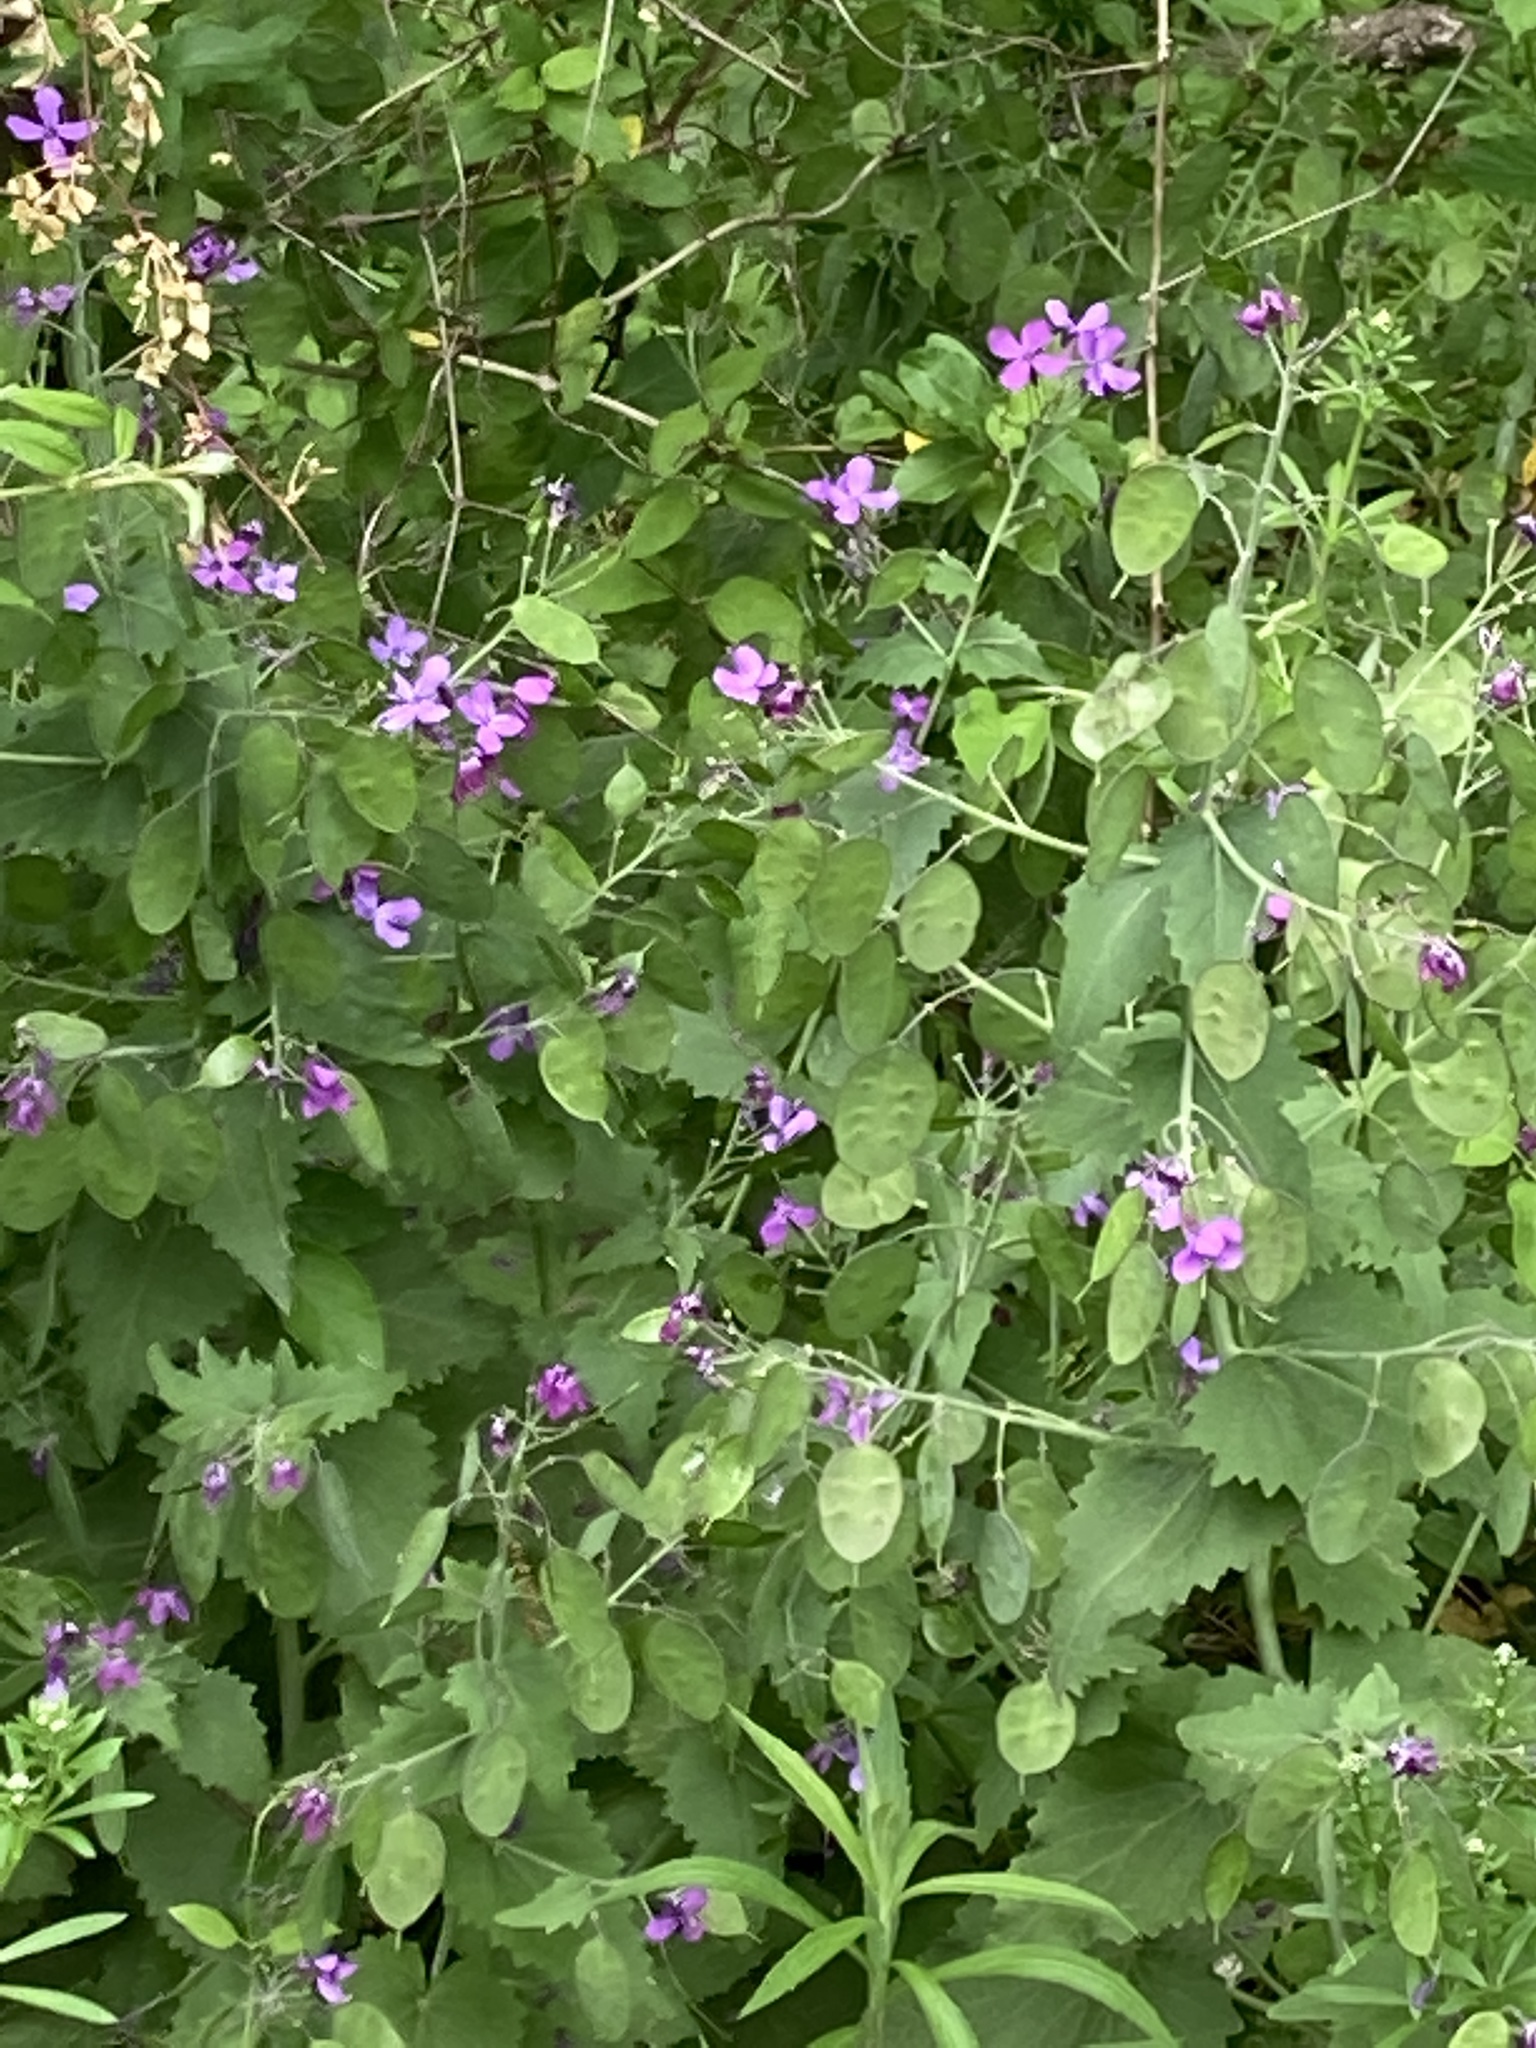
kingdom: Plantae
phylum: Tracheophyta
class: Magnoliopsida
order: Brassicales
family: Brassicaceae
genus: Lunaria
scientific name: Lunaria annua
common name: Honesty
